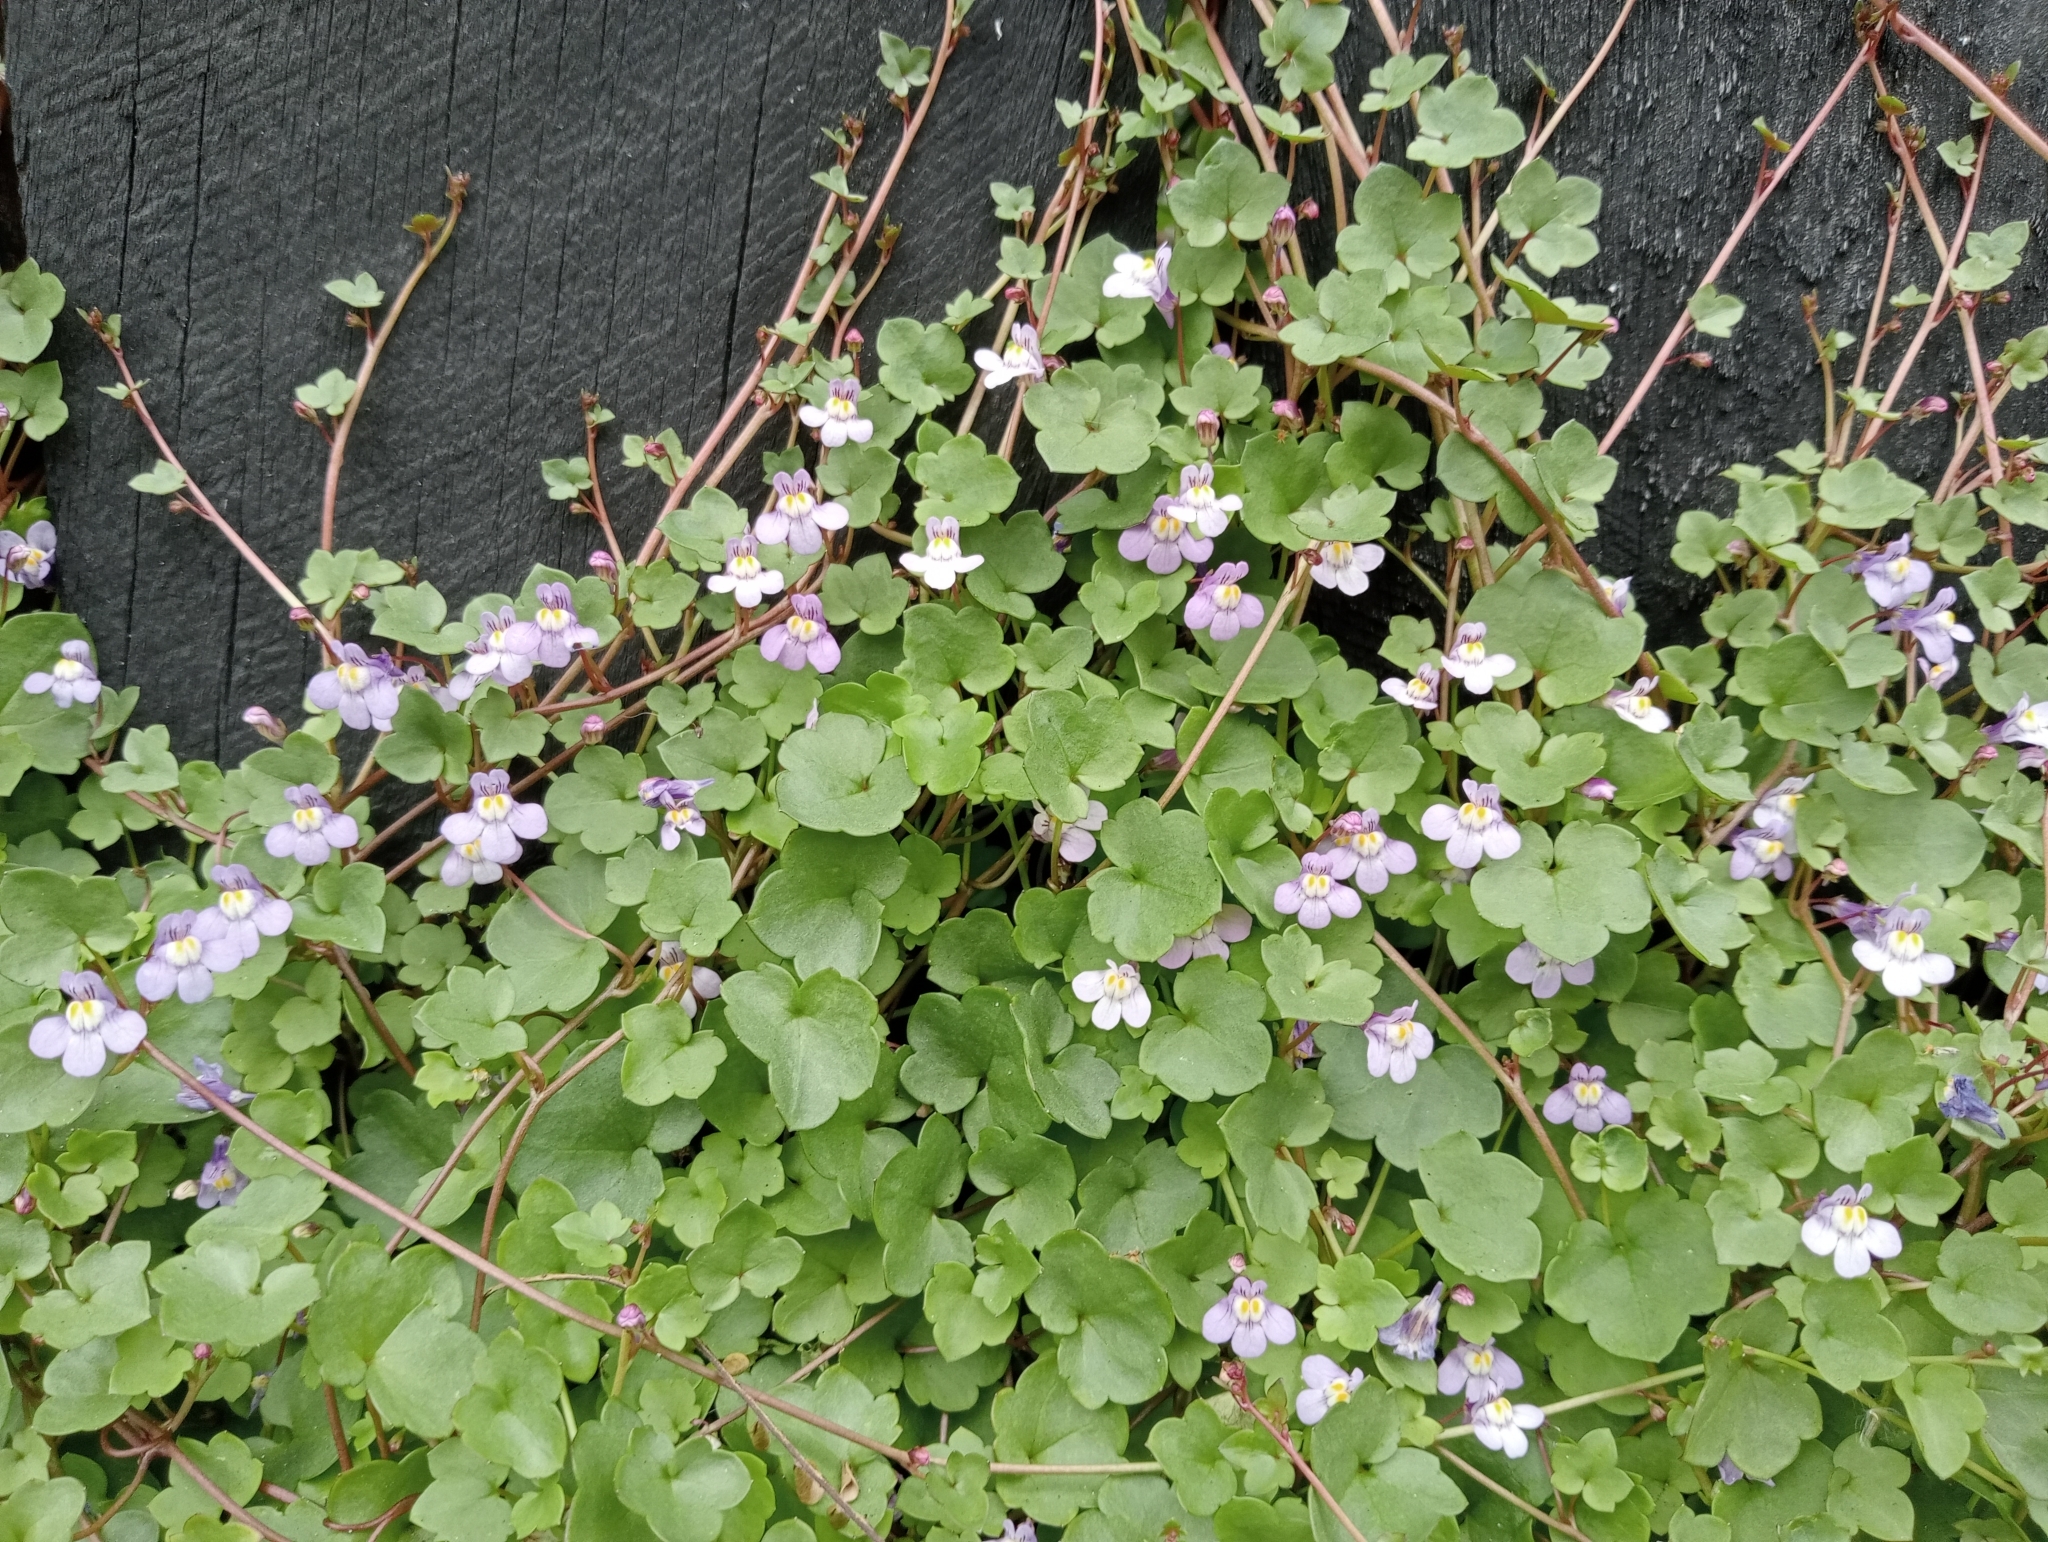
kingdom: Plantae
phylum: Tracheophyta
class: Magnoliopsida
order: Lamiales
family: Plantaginaceae
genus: Cymbalaria
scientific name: Cymbalaria muralis
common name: Ivy-leaved toadflax
